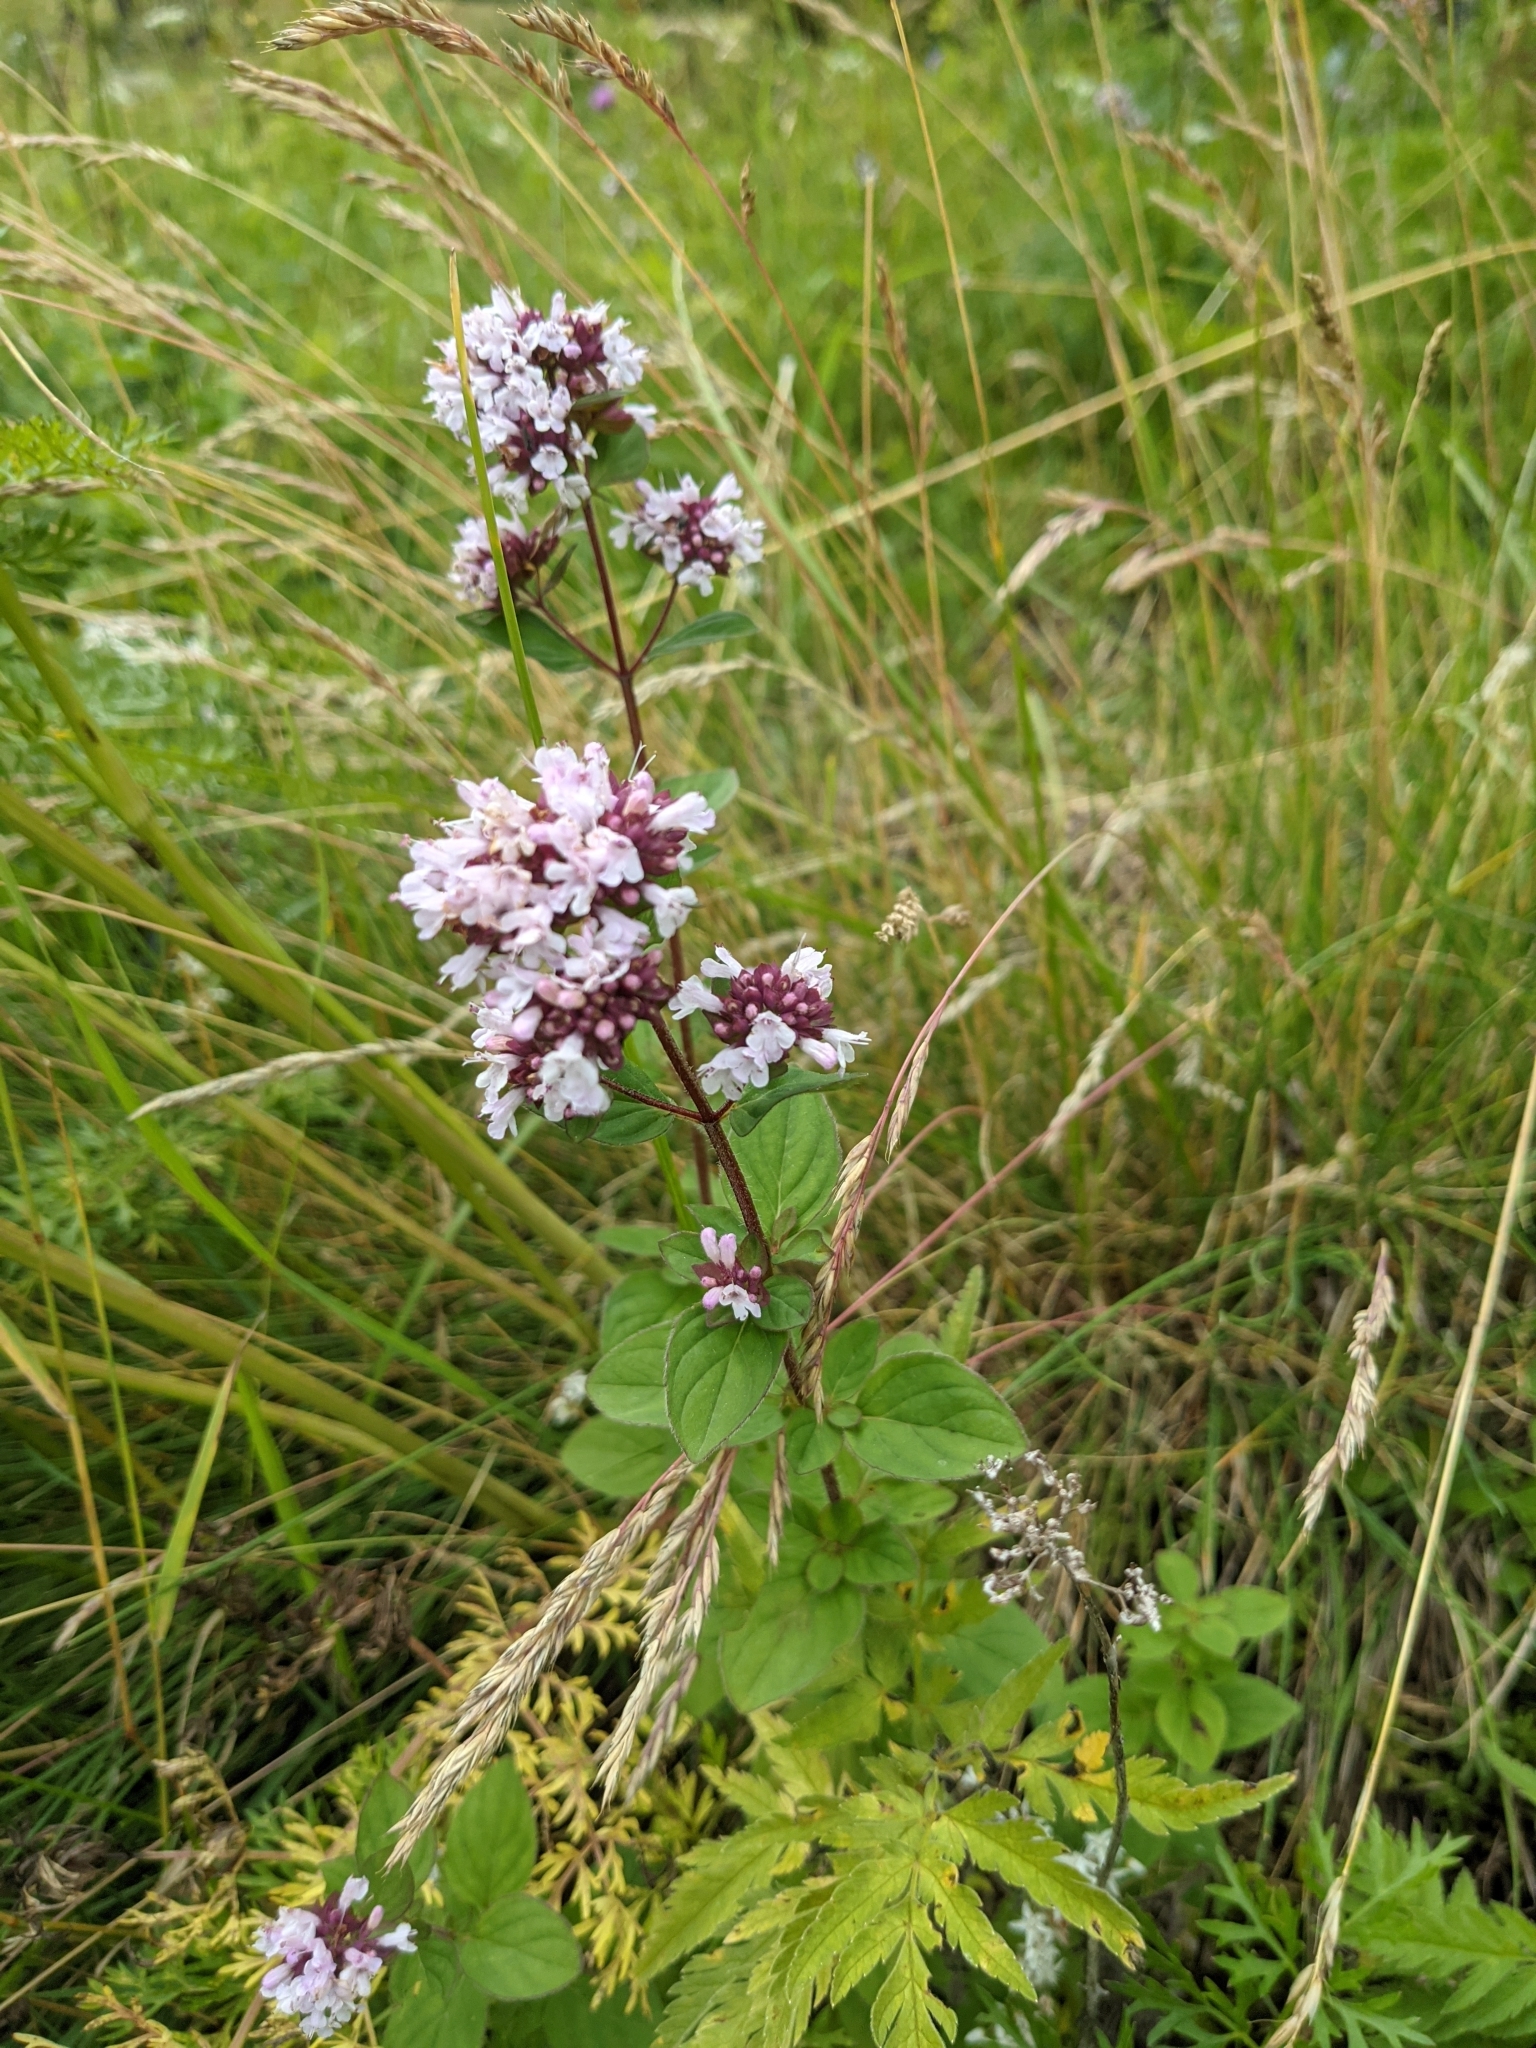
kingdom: Plantae
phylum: Tracheophyta
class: Magnoliopsida
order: Lamiales
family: Lamiaceae
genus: Origanum
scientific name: Origanum vulgare
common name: Wild marjoram
